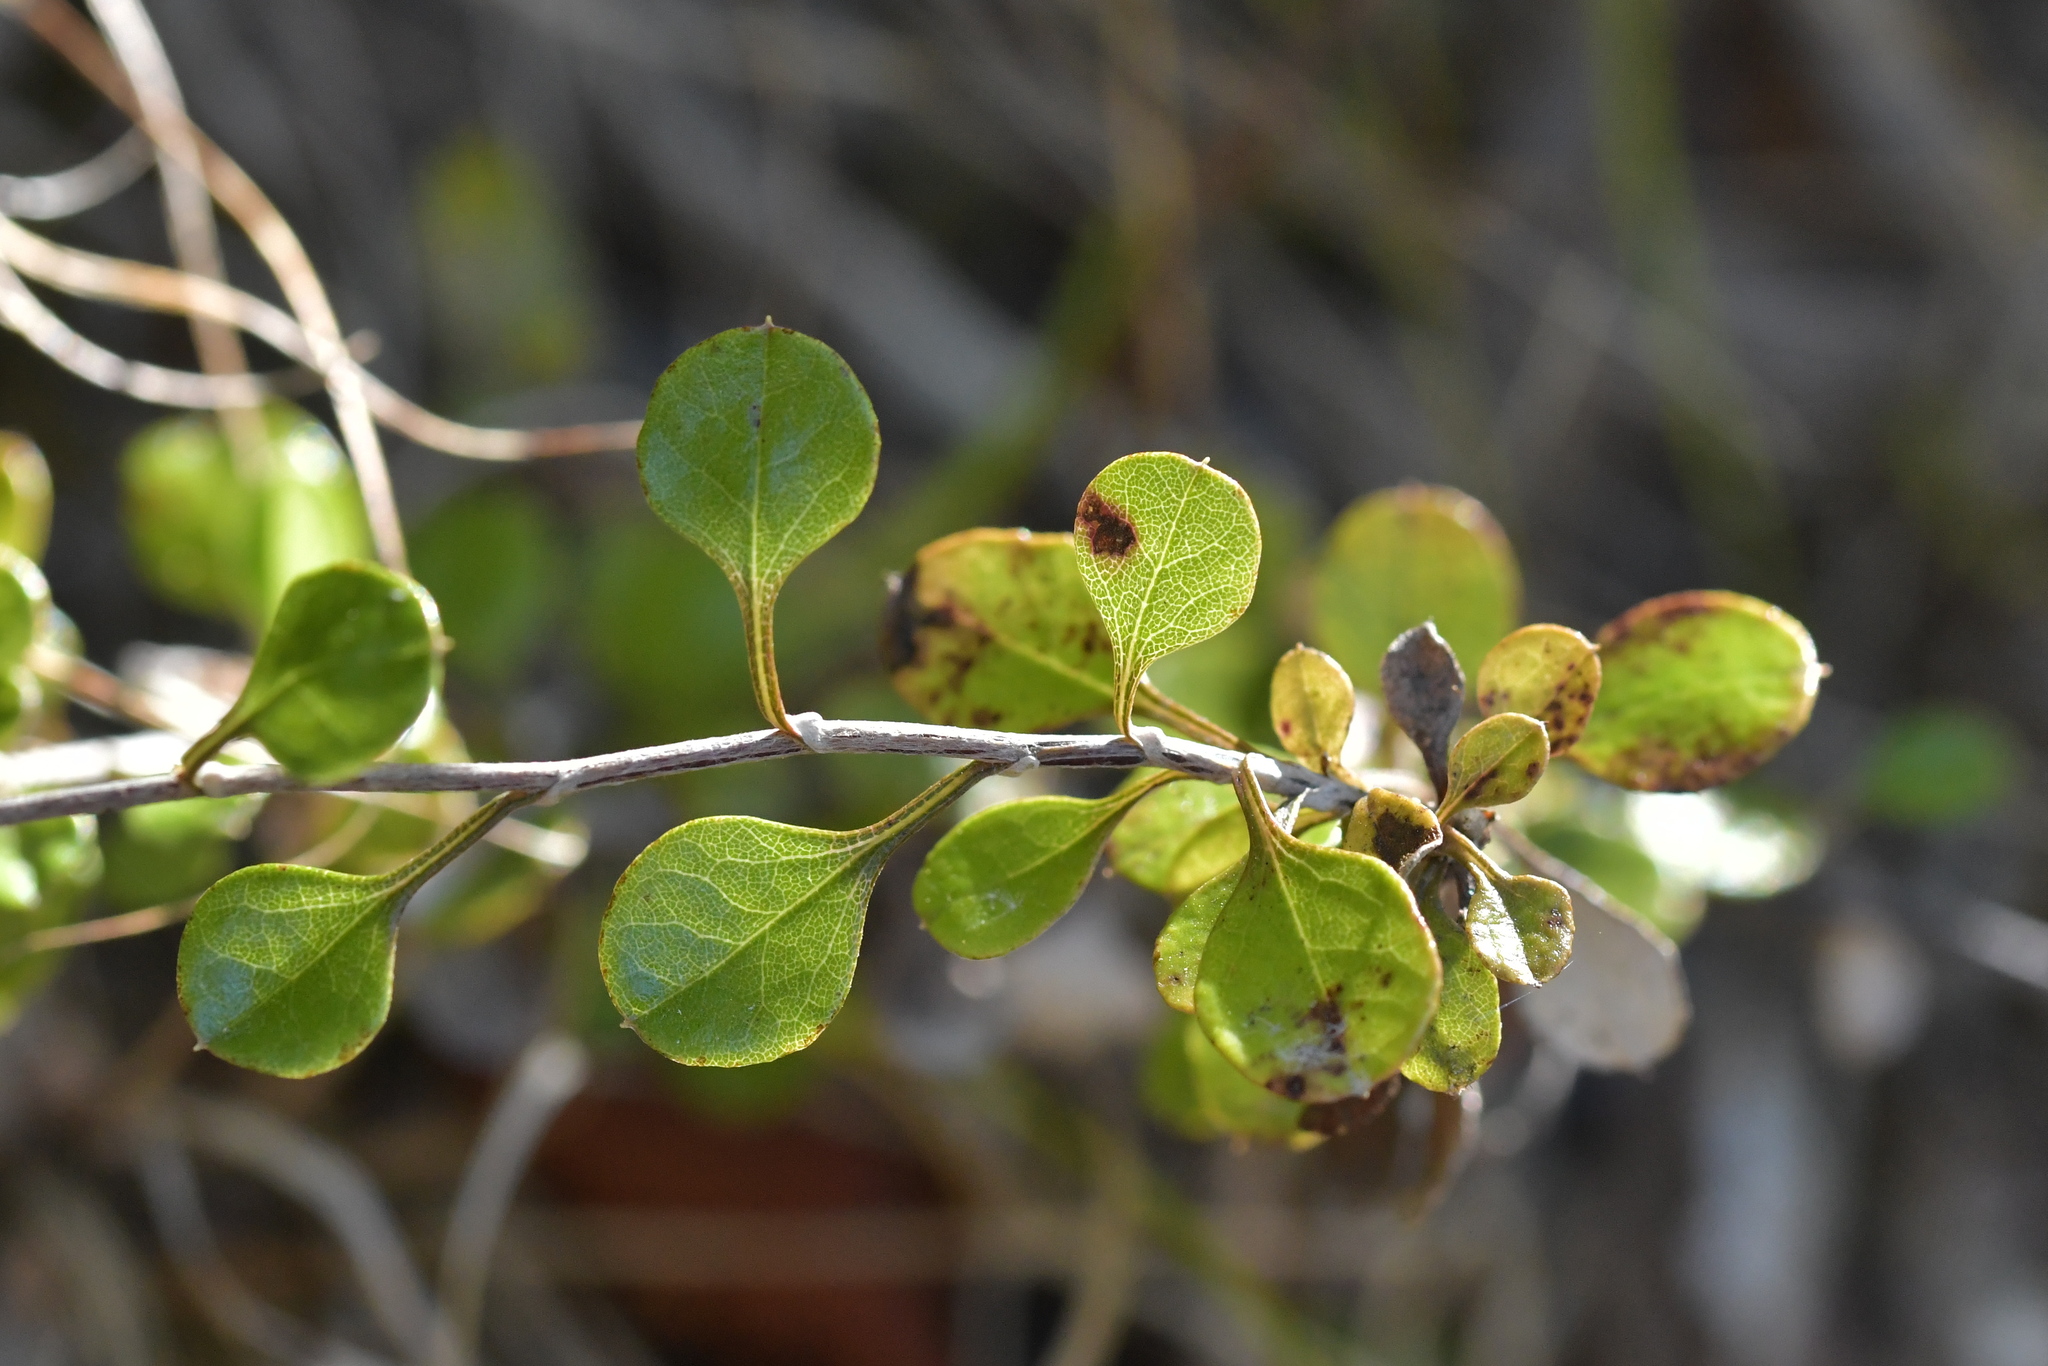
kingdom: Plantae
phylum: Tracheophyta
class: Magnoliopsida
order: Asterales
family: Asteraceae
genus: Ozothamnus
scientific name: Ozothamnus glomeratus
